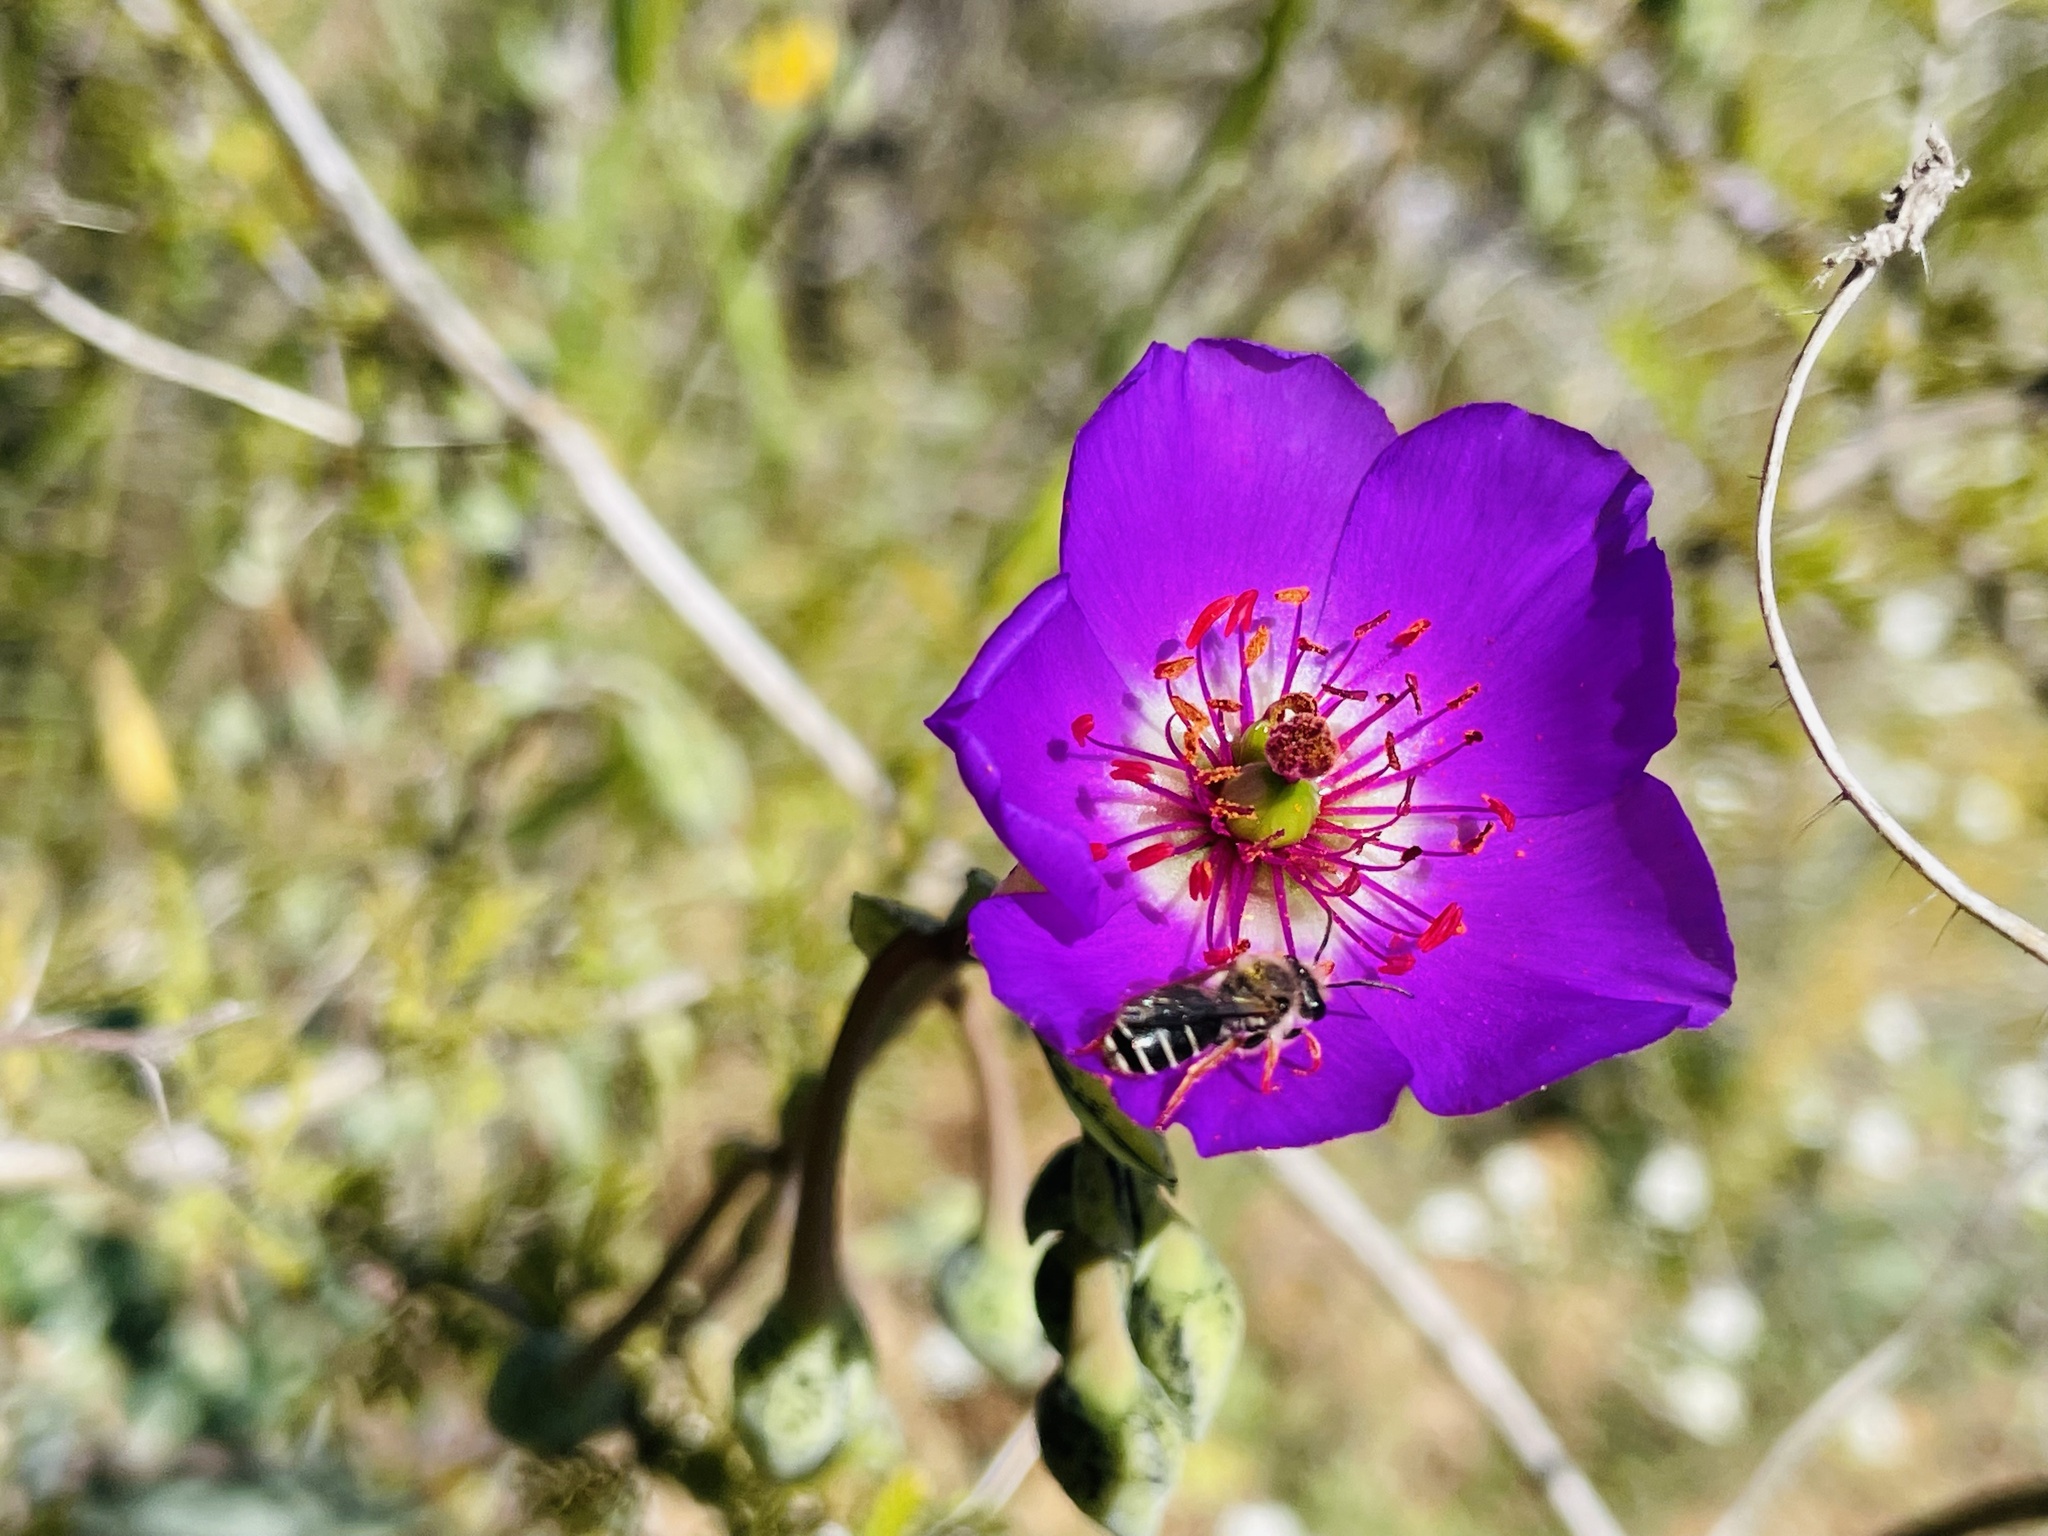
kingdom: Plantae
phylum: Tracheophyta
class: Magnoliopsida
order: Caryophyllales
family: Montiaceae
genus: Cistanthe
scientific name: Cistanthe grandiflora
